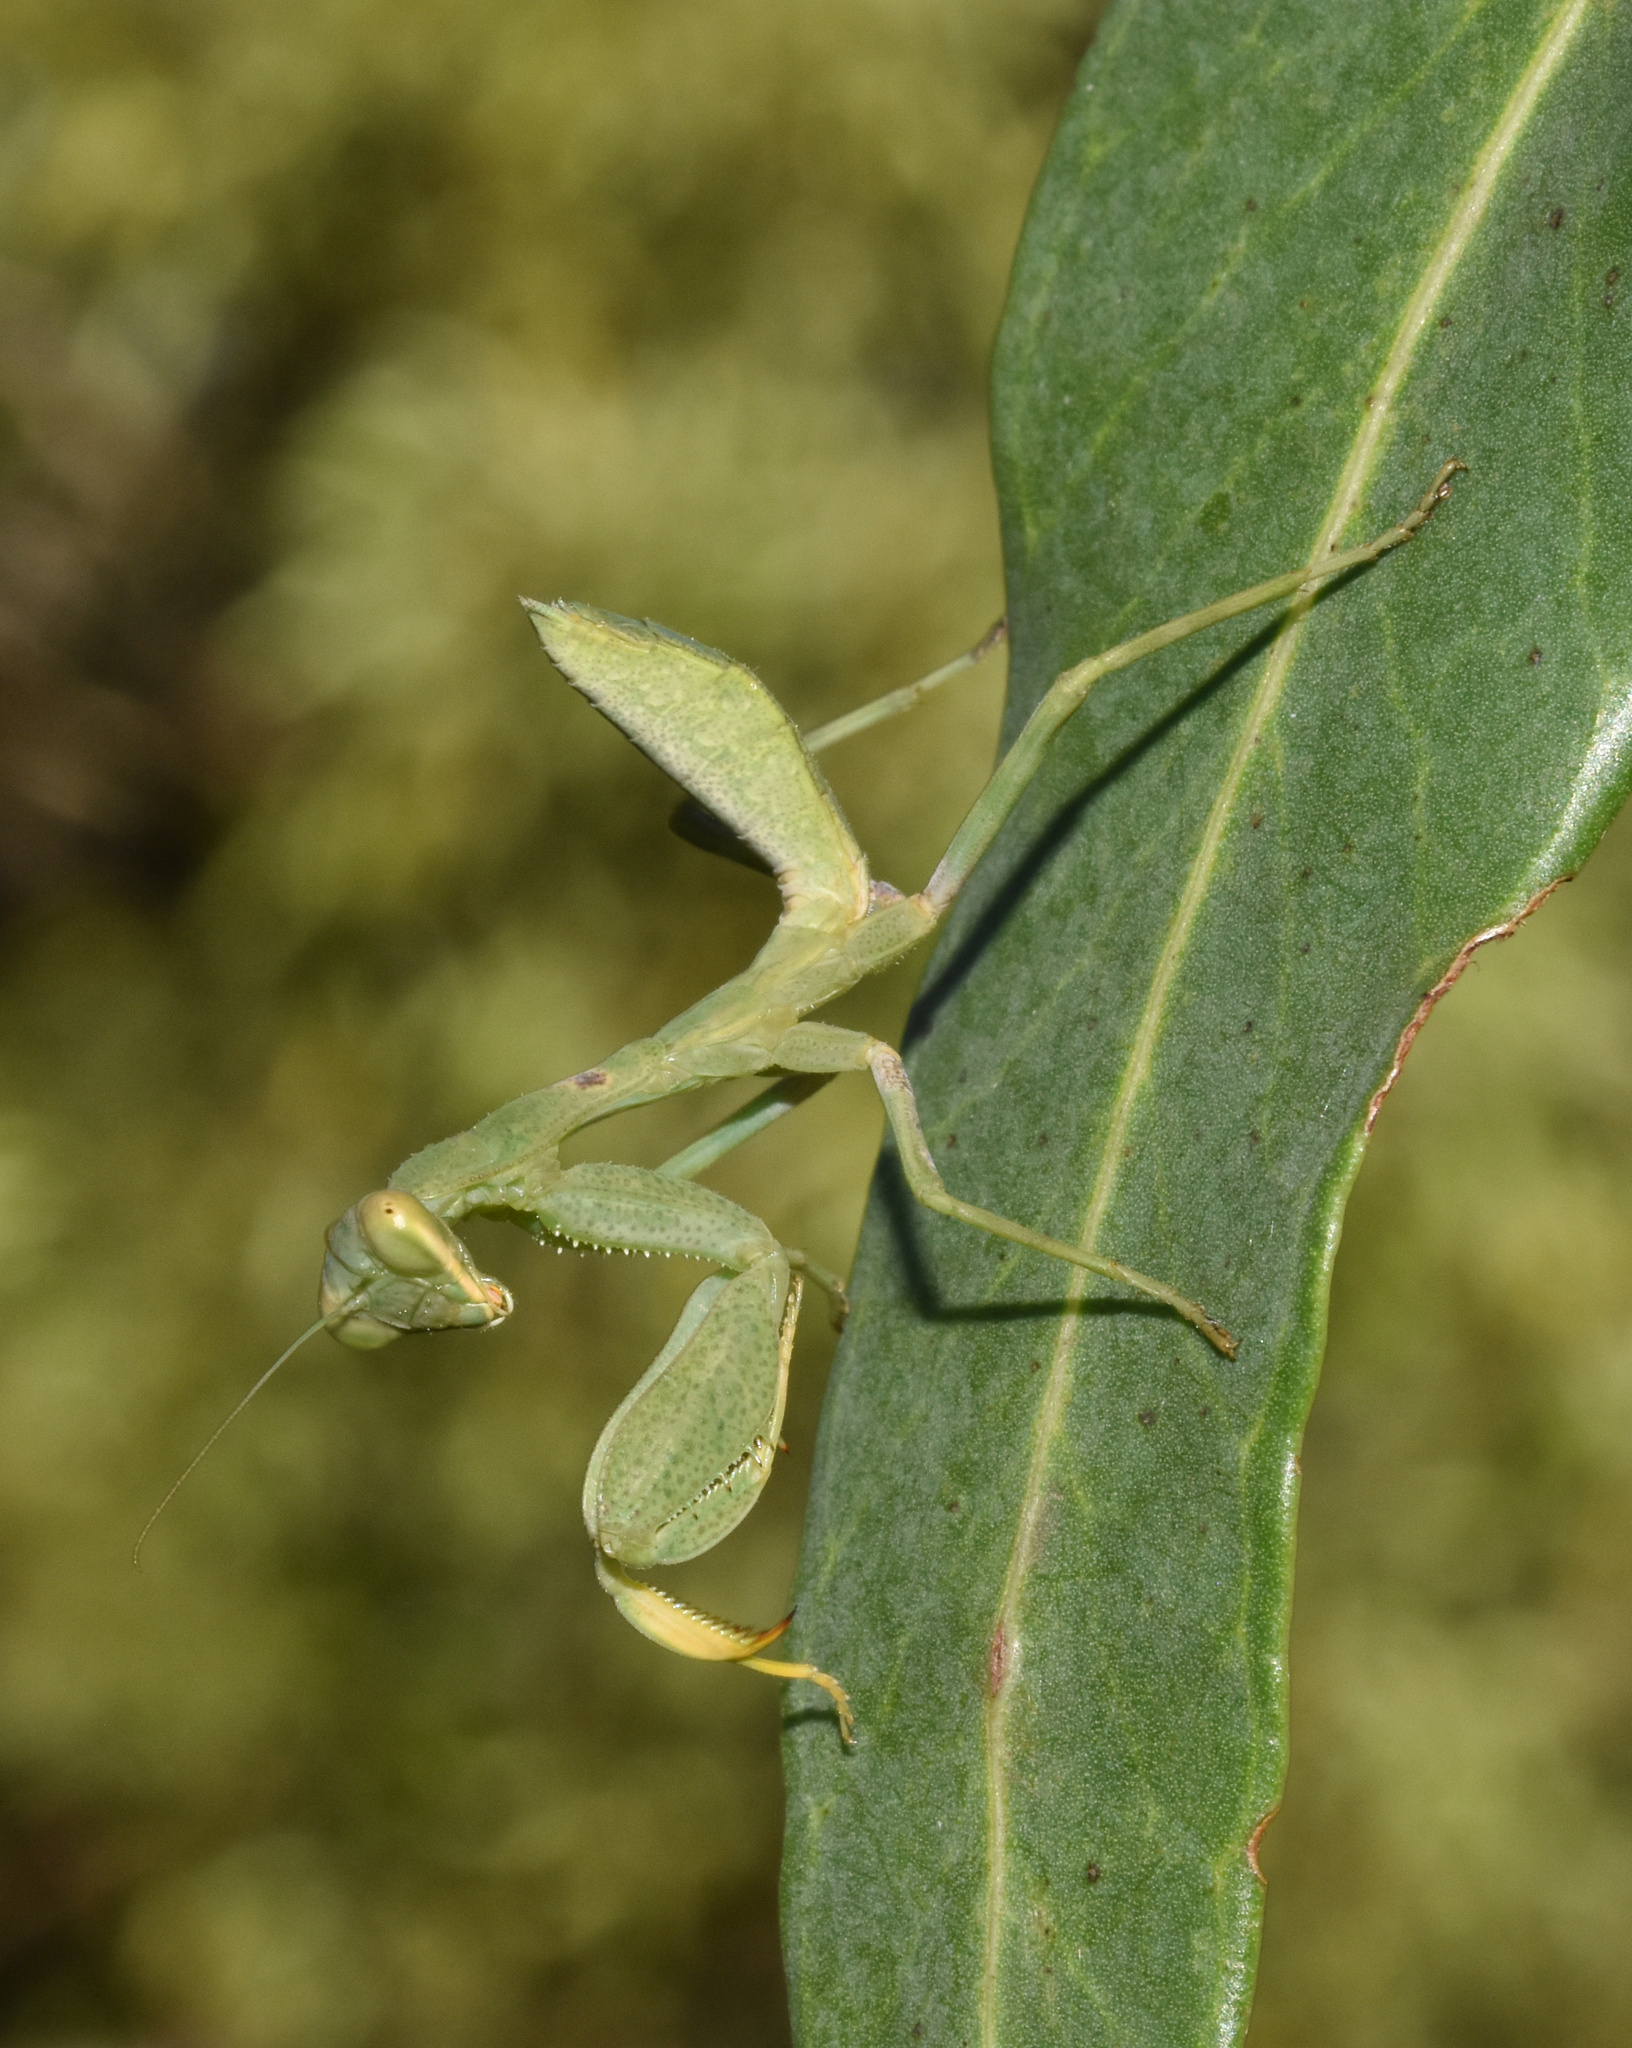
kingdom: Animalia
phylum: Arthropoda
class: Insecta
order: Mantodea
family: Miomantidae
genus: Cilnia
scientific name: Cilnia humeralis
